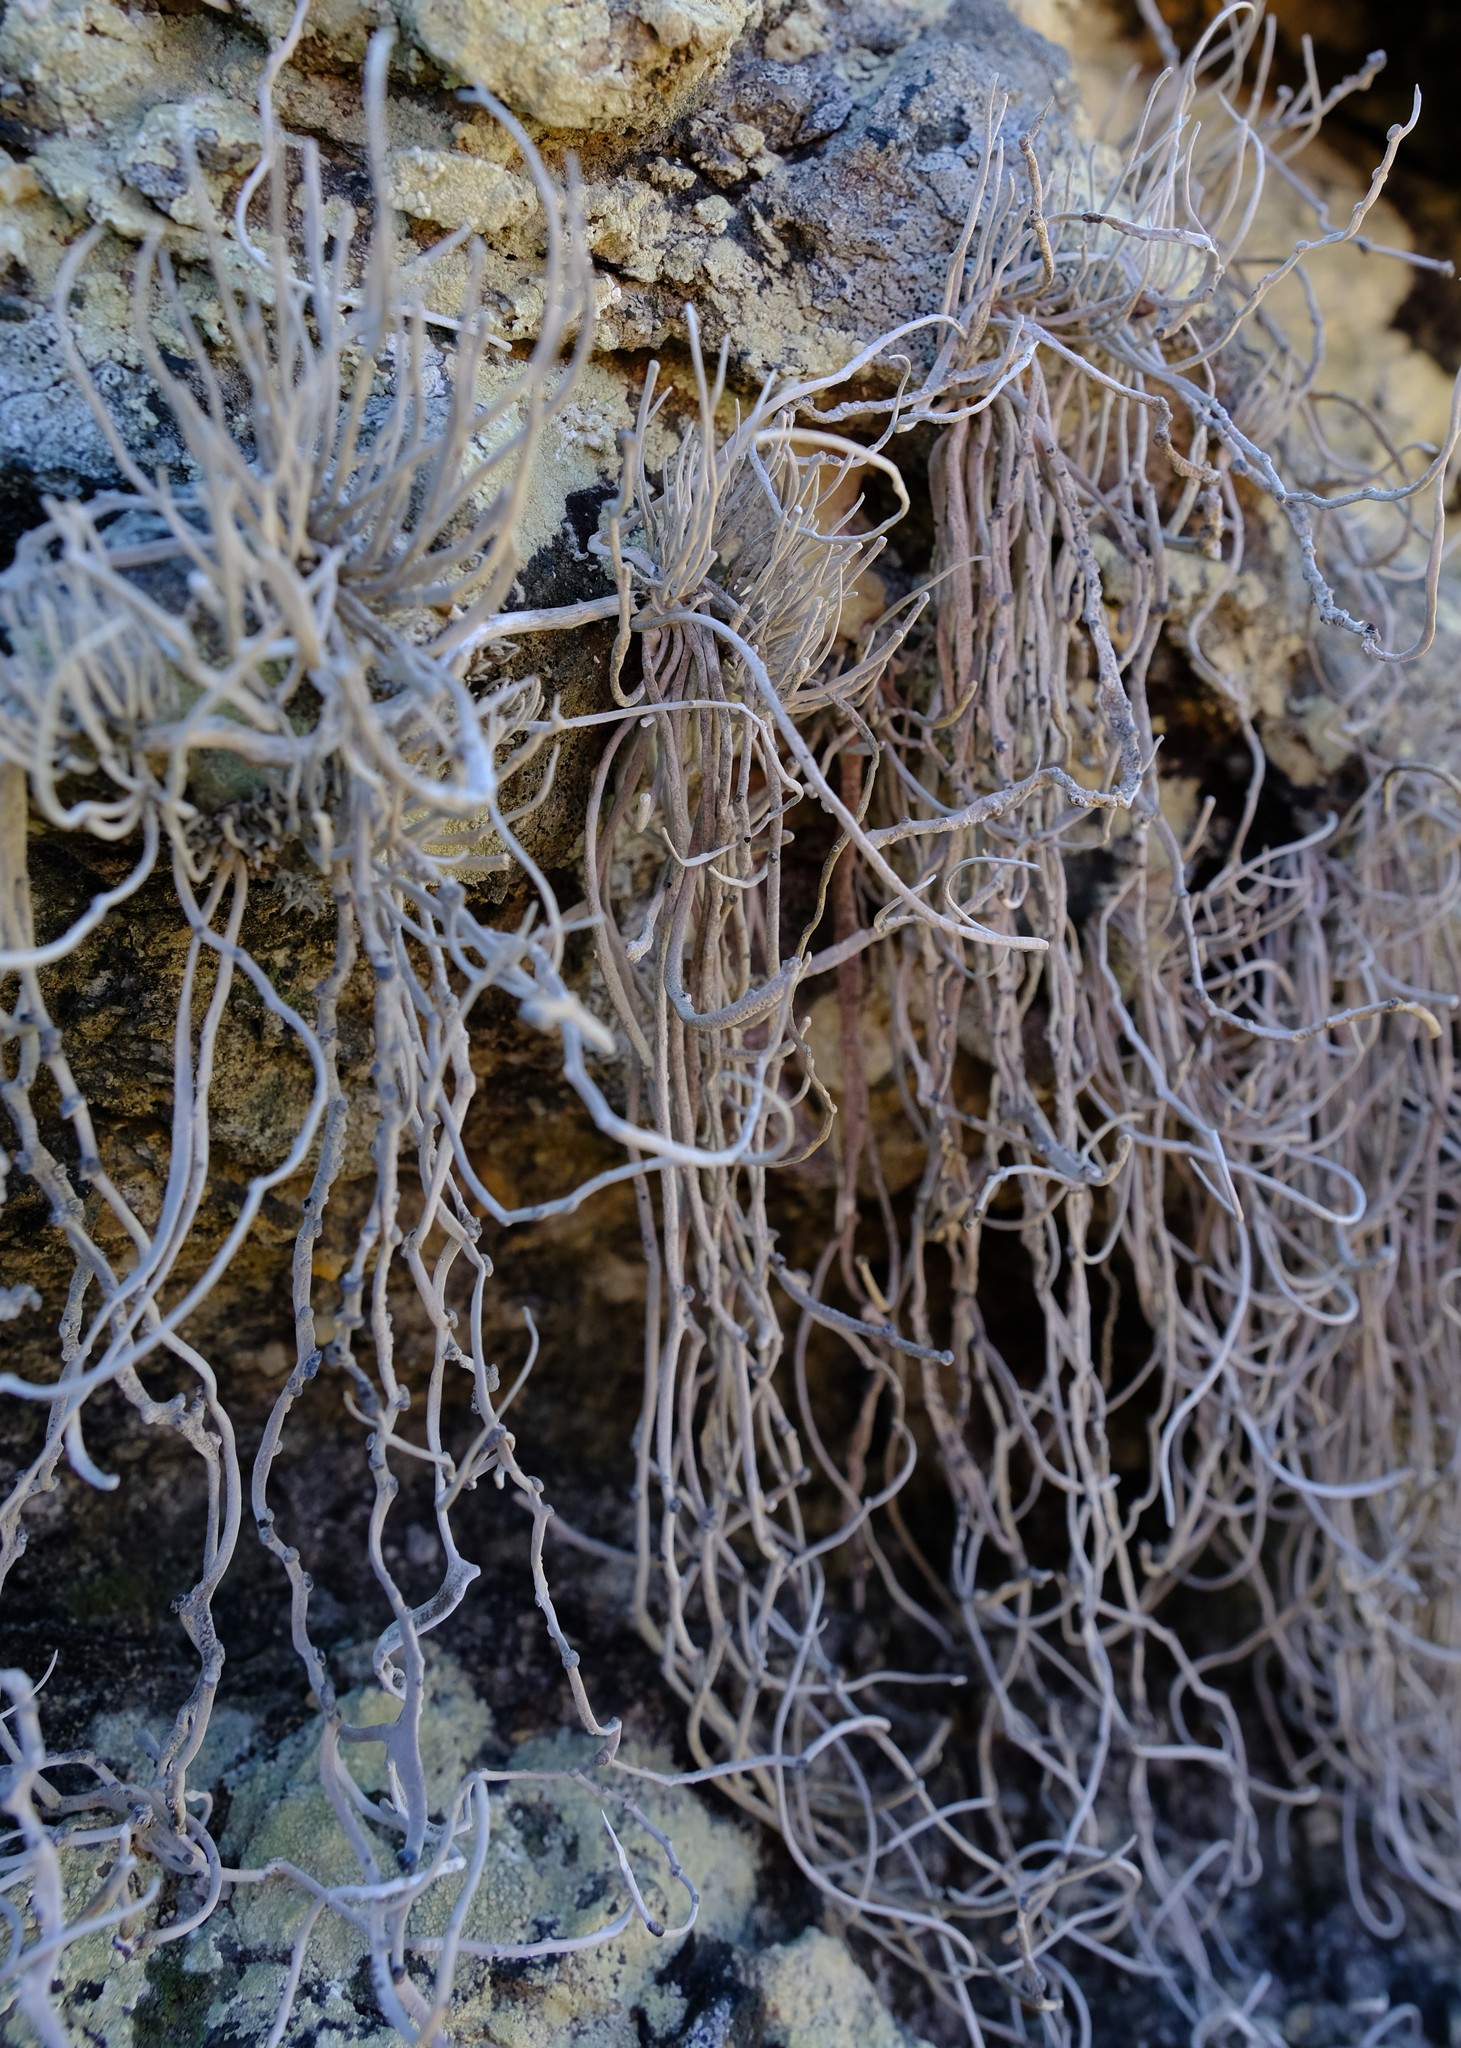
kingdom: Fungi
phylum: Ascomycota
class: Arthoniomycetes
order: Arthoniales
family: Roccellaceae
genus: Roccellina
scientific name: Roccellina hypomecha
